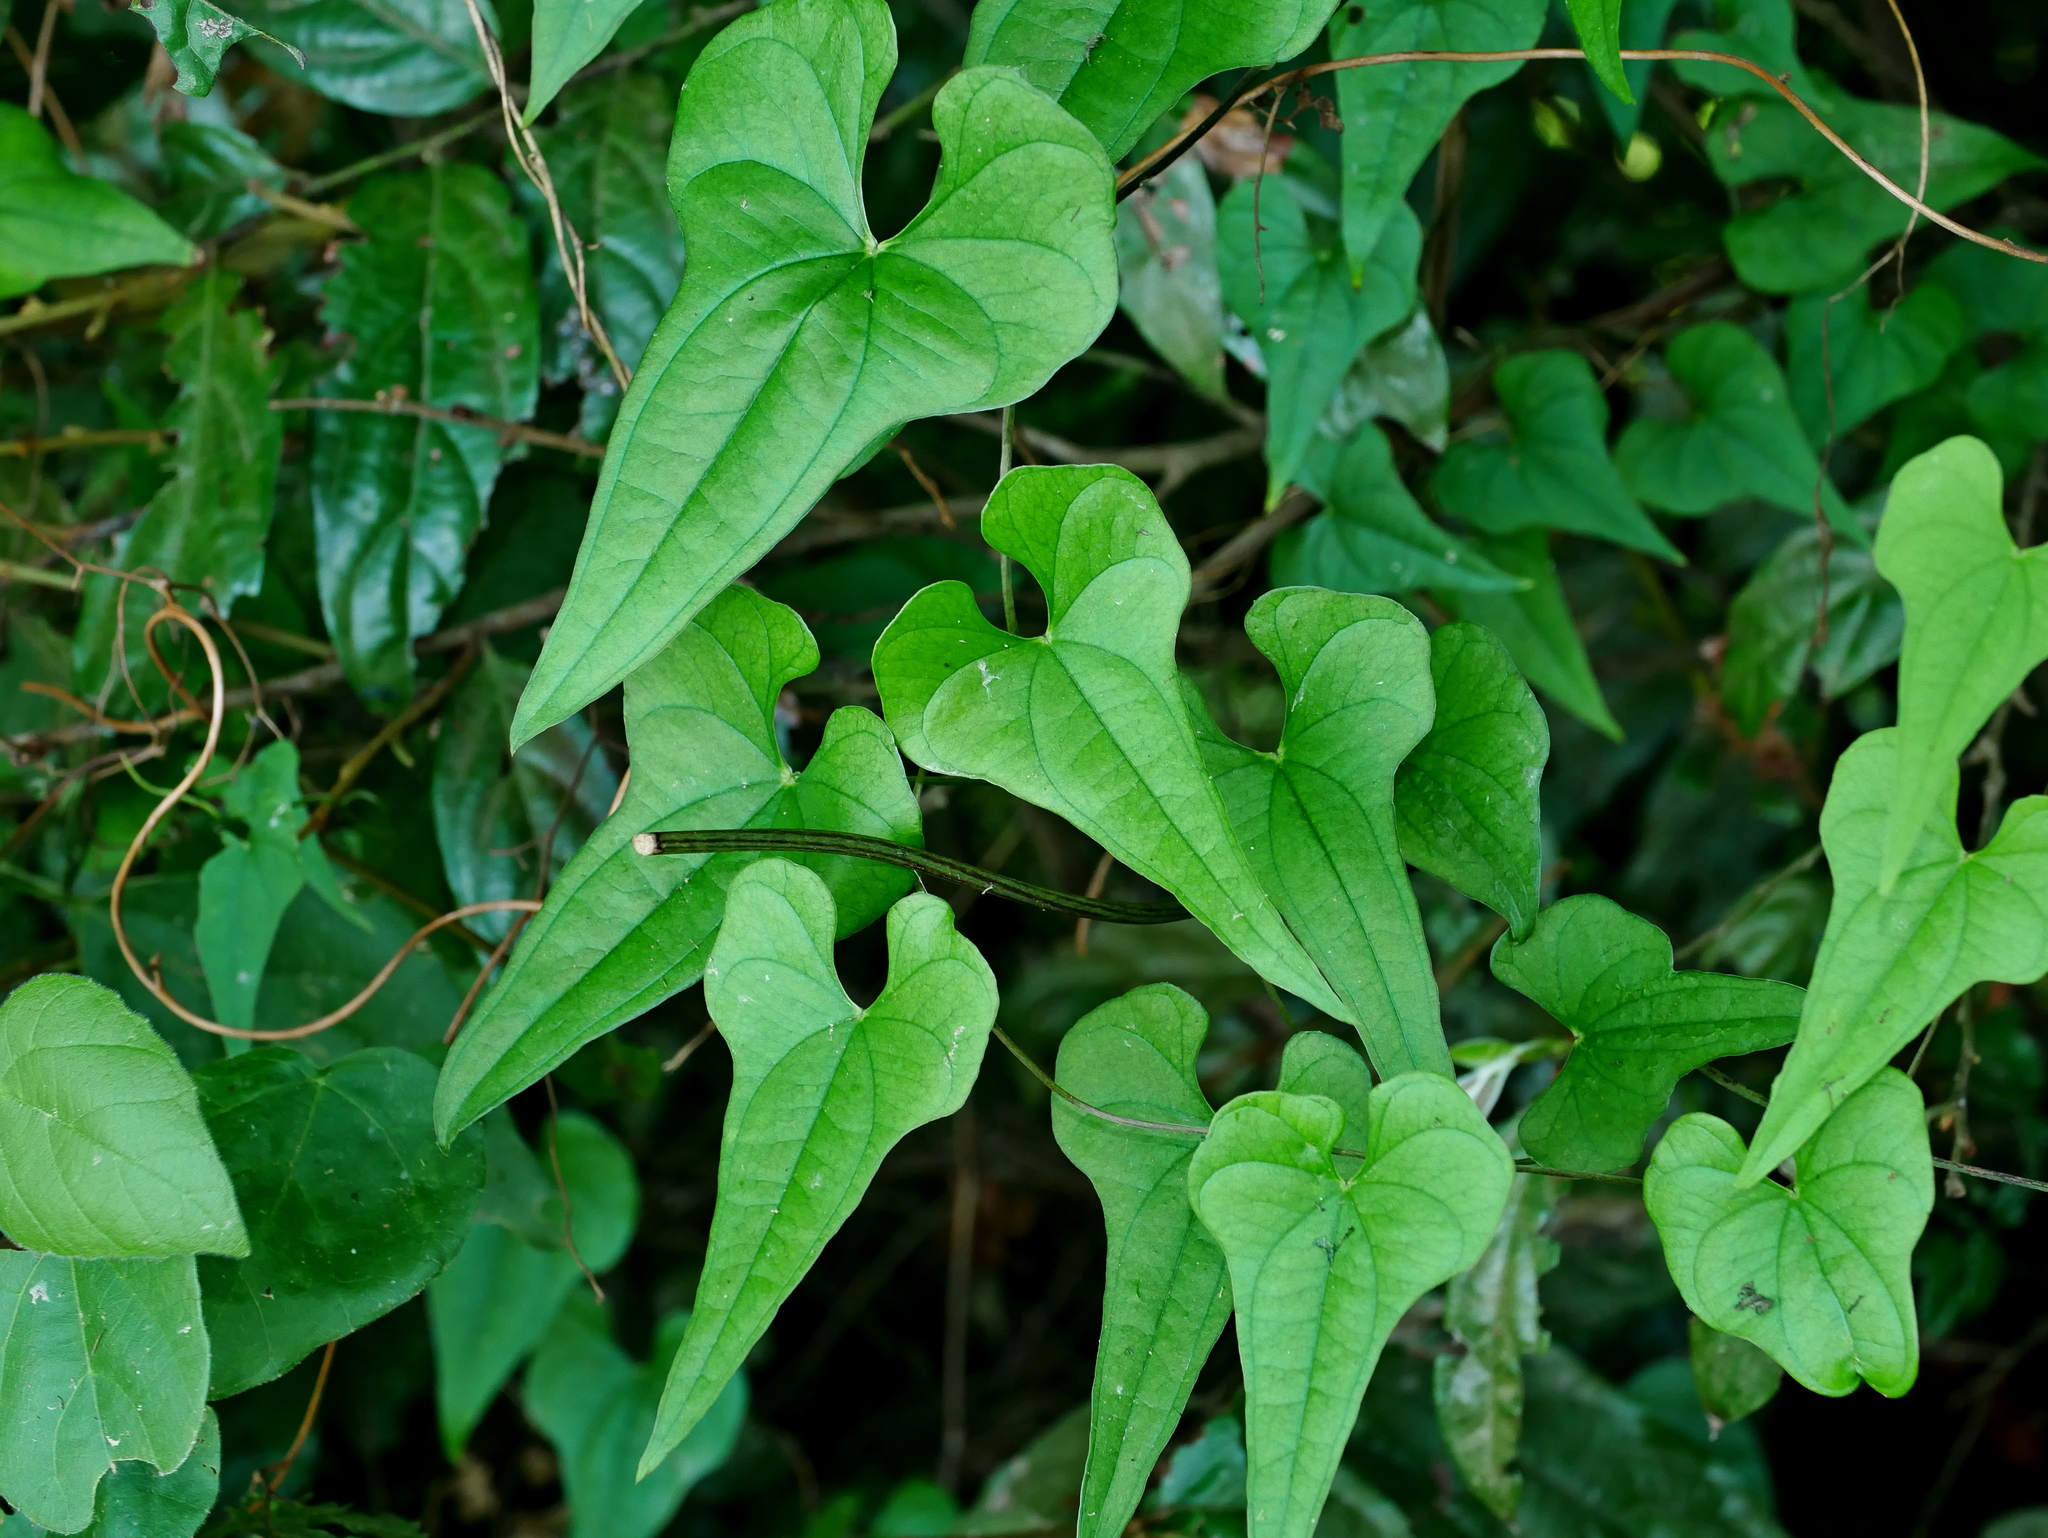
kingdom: Plantae
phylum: Tracheophyta
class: Liliopsida
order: Dioscoreales
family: Dioscoreaceae
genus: Dioscorea
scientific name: Dioscorea polystachya
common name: Chinese yam
